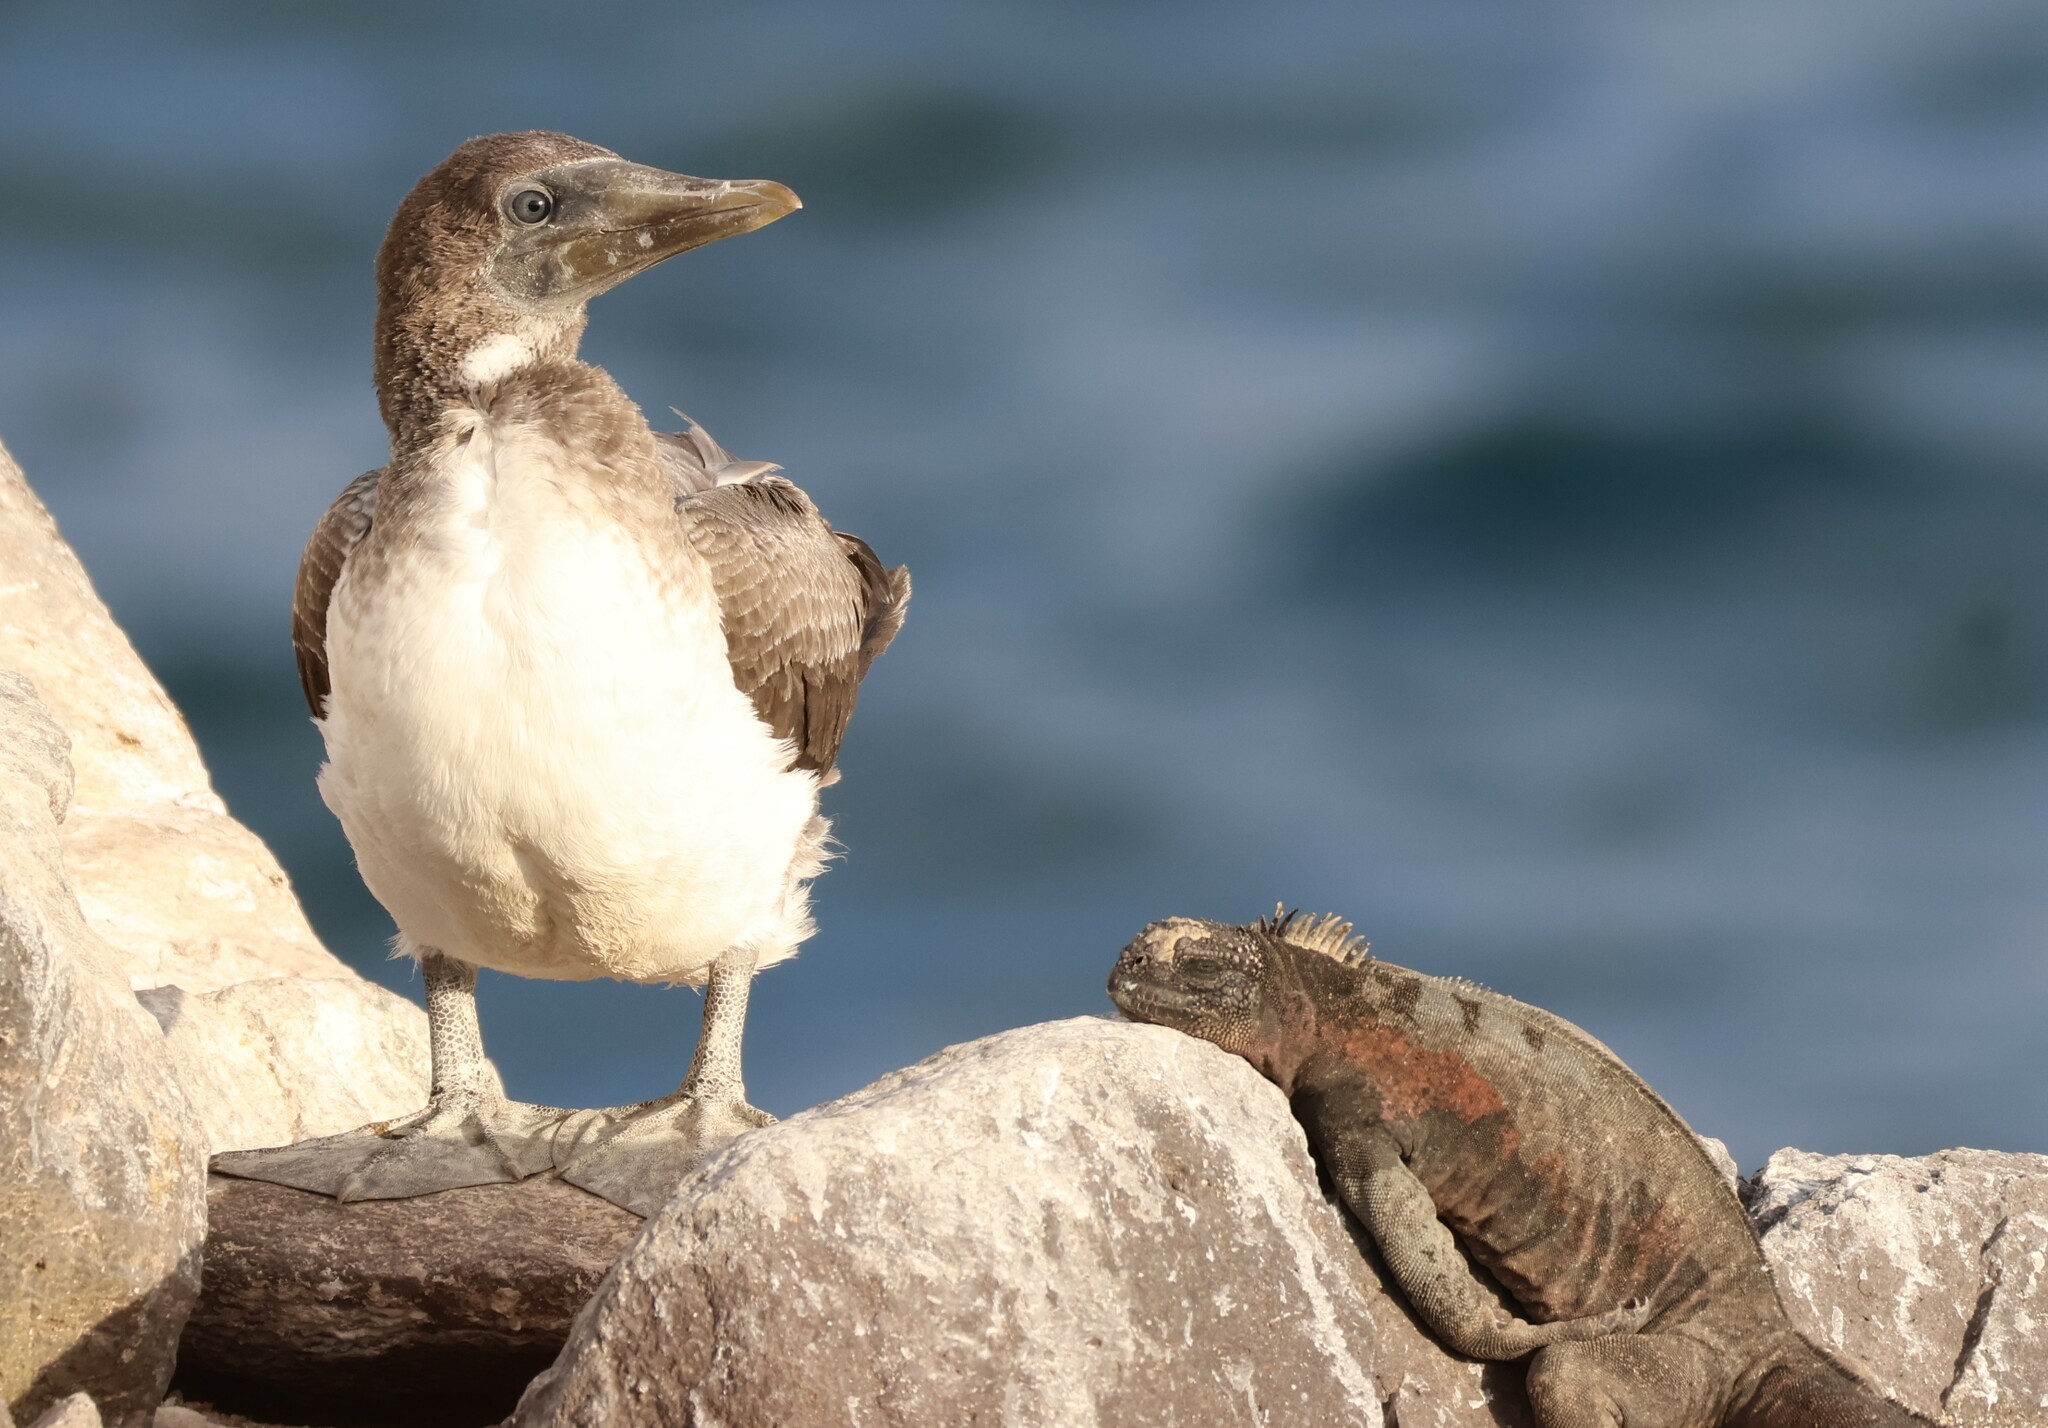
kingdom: Animalia
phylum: Chordata
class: Aves
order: Suliformes
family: Sulidae
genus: Sula
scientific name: Sula granti
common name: Nazca booby
